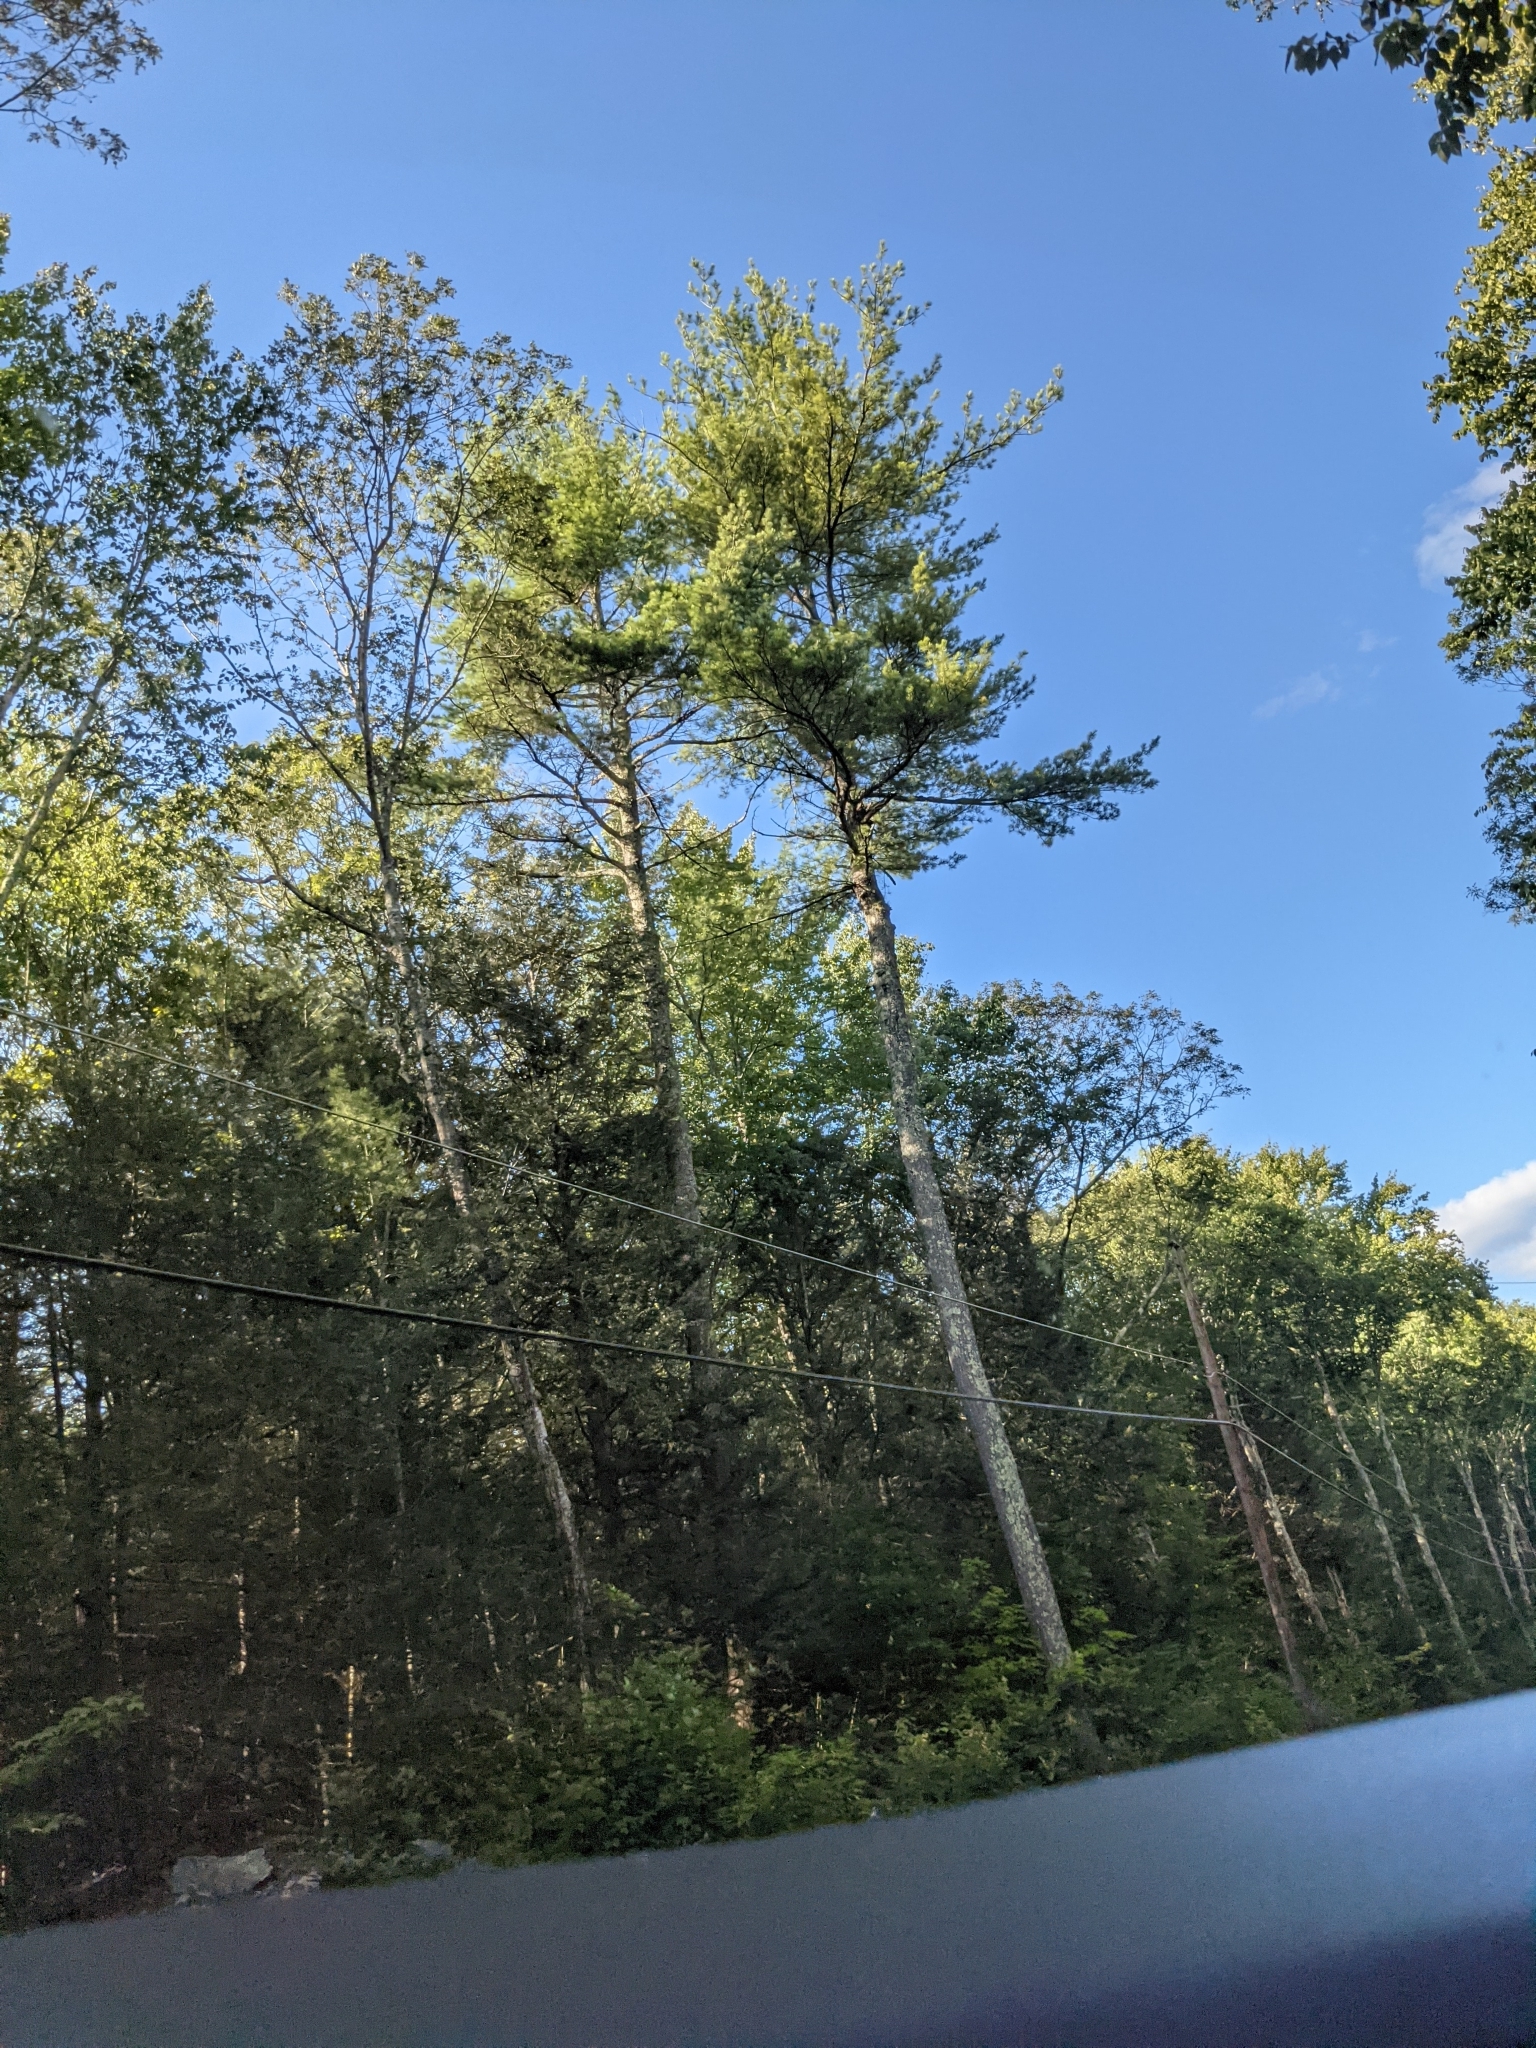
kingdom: Plantae
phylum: Tracheophyta
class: Pinopsida
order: Pinales
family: Pinaceae
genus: Pinus
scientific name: Pinus strobus
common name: Weymouth pine
